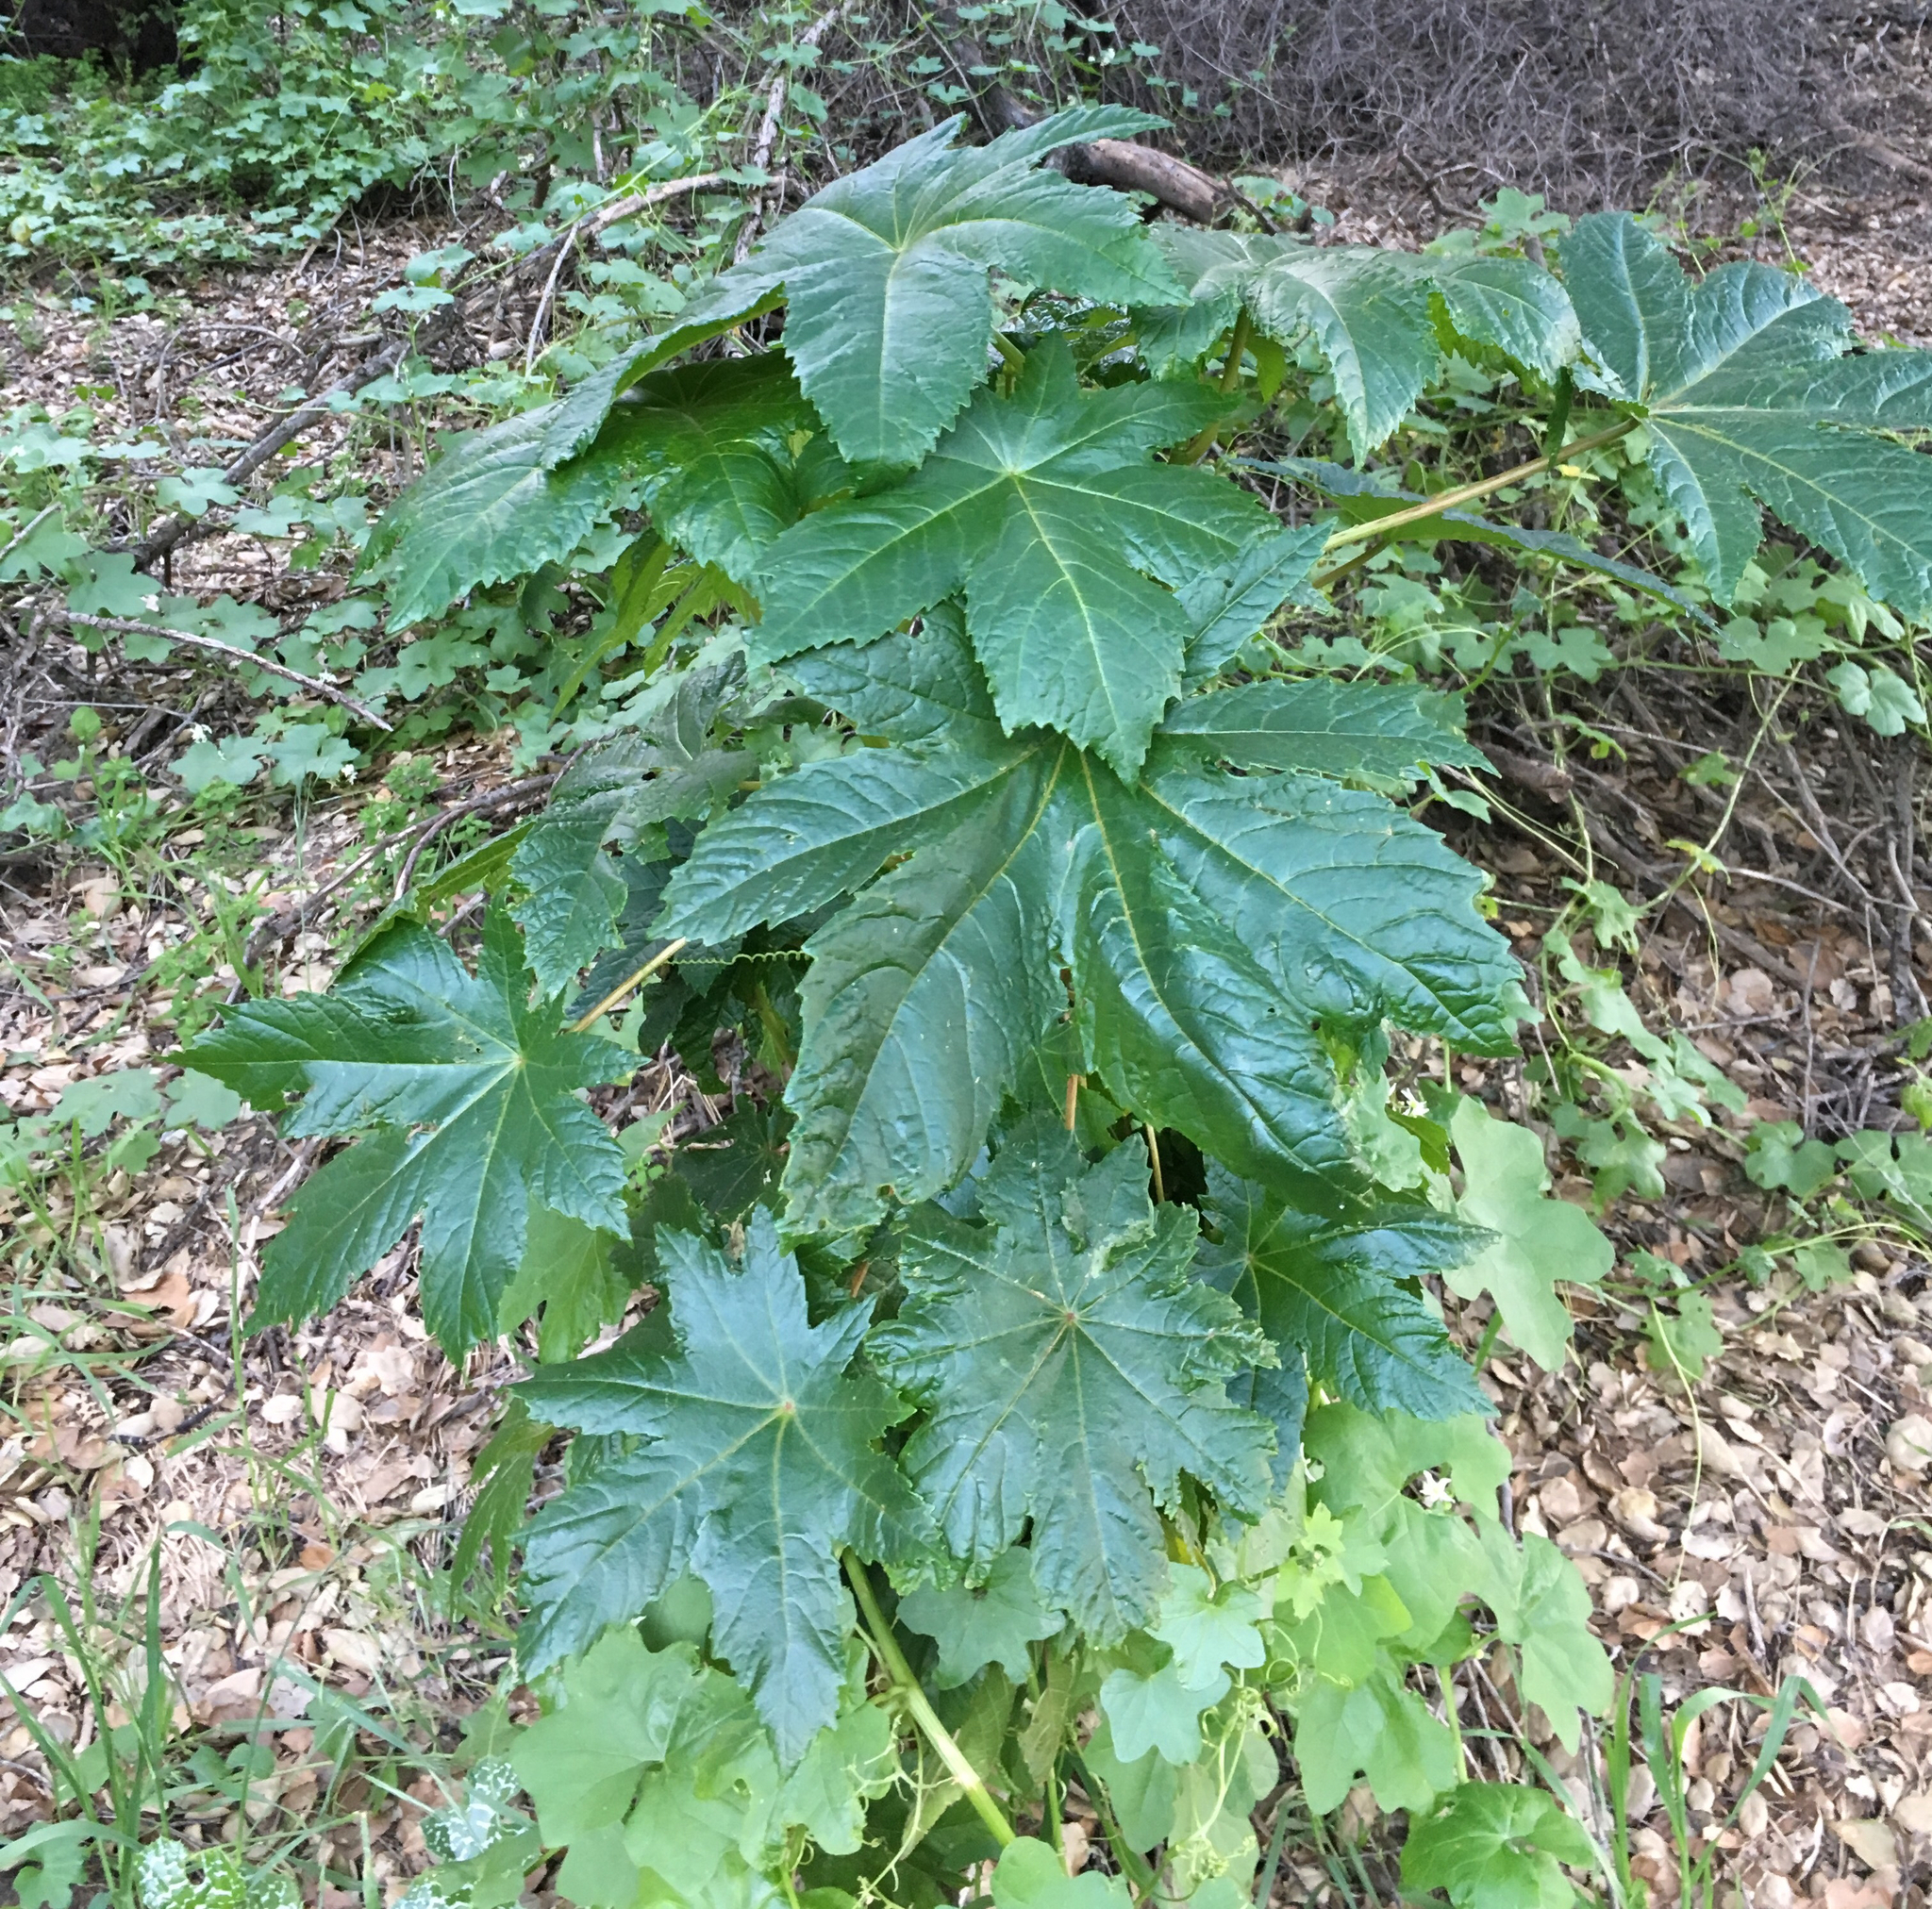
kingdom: Plantae
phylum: Tracheophyta
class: Magnoliopsida
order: Malpighiales
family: Euphorbiaceae
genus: Ricinus
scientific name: Ricinus communis
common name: Castor-oil-plant
